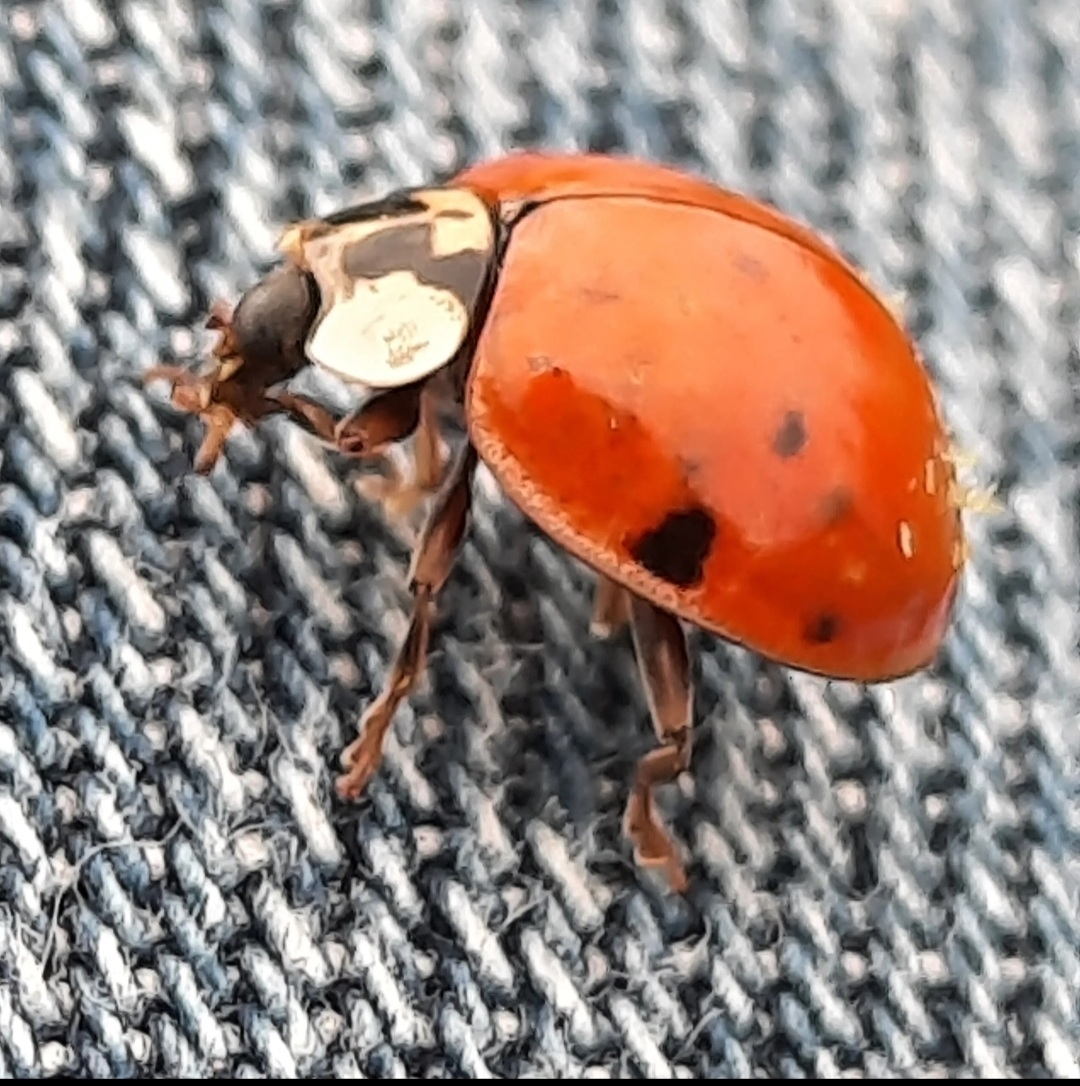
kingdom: Animalia
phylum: Arthropoda
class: Insecta
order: Coleoptera
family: Coccinellidae
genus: Harmonia
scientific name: Harmonia axyridis
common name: Harlequin ladybird
